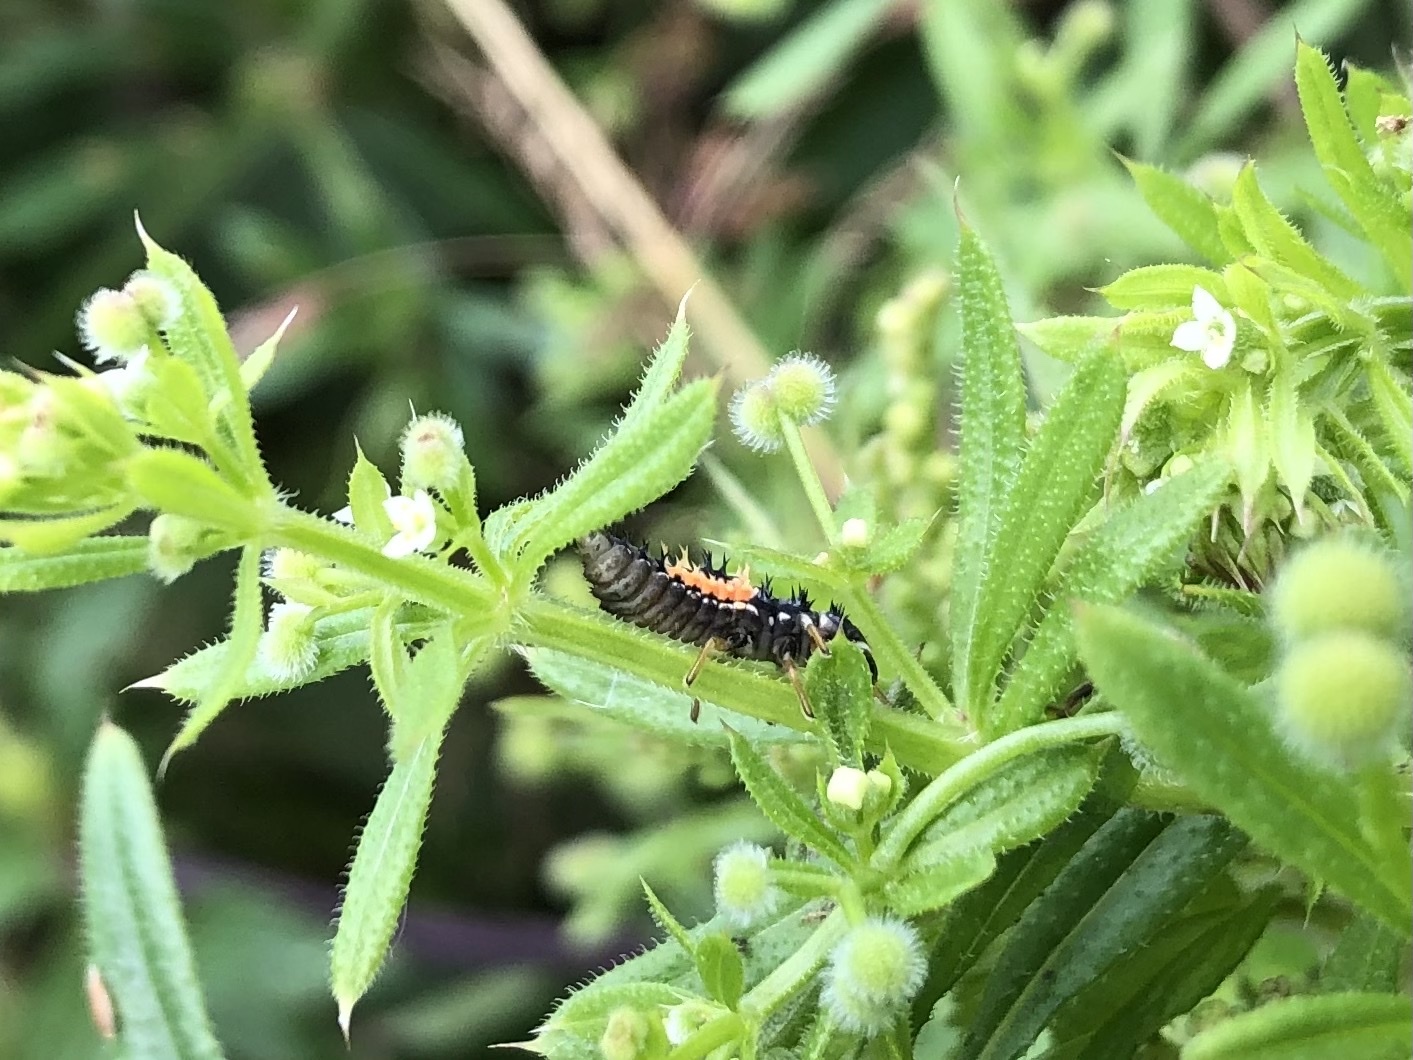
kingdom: Animalia
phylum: Arthropoda
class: Insecta
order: Coleoptera
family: Coccinellidae
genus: Harmonia
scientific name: Harmonia axyridis
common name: Harlequin ladybird
